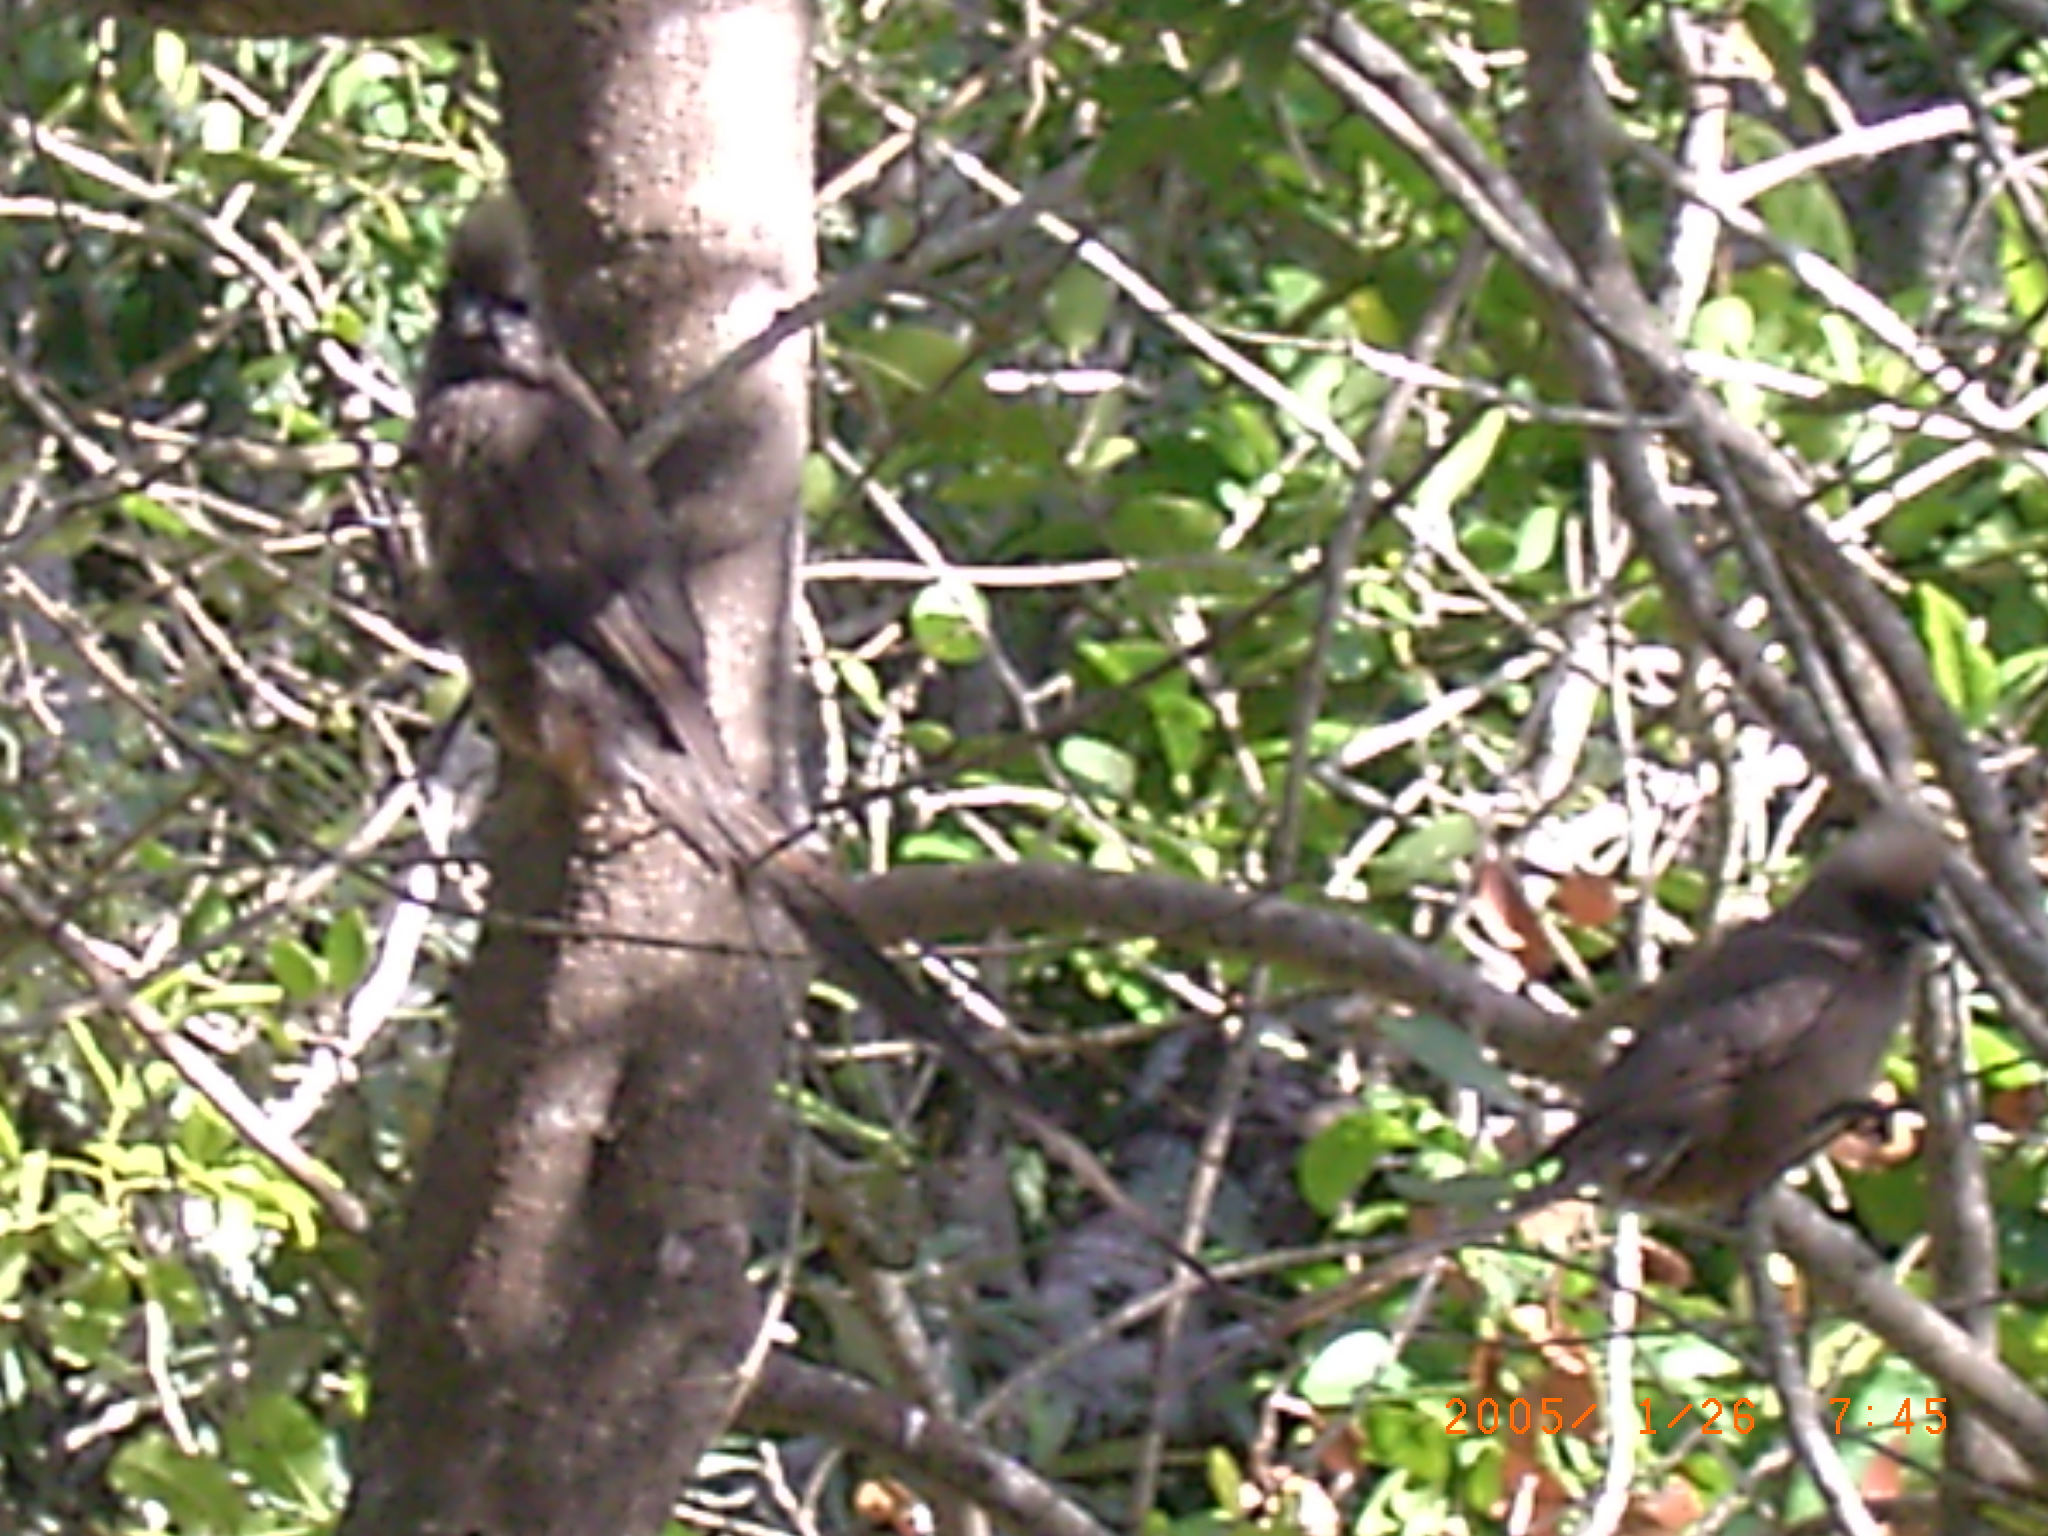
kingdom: Animalia
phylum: Chordata
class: Aves
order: Coliiformes
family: Coliidae
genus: Colius
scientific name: Colius striatus
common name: Speckled mousebird
